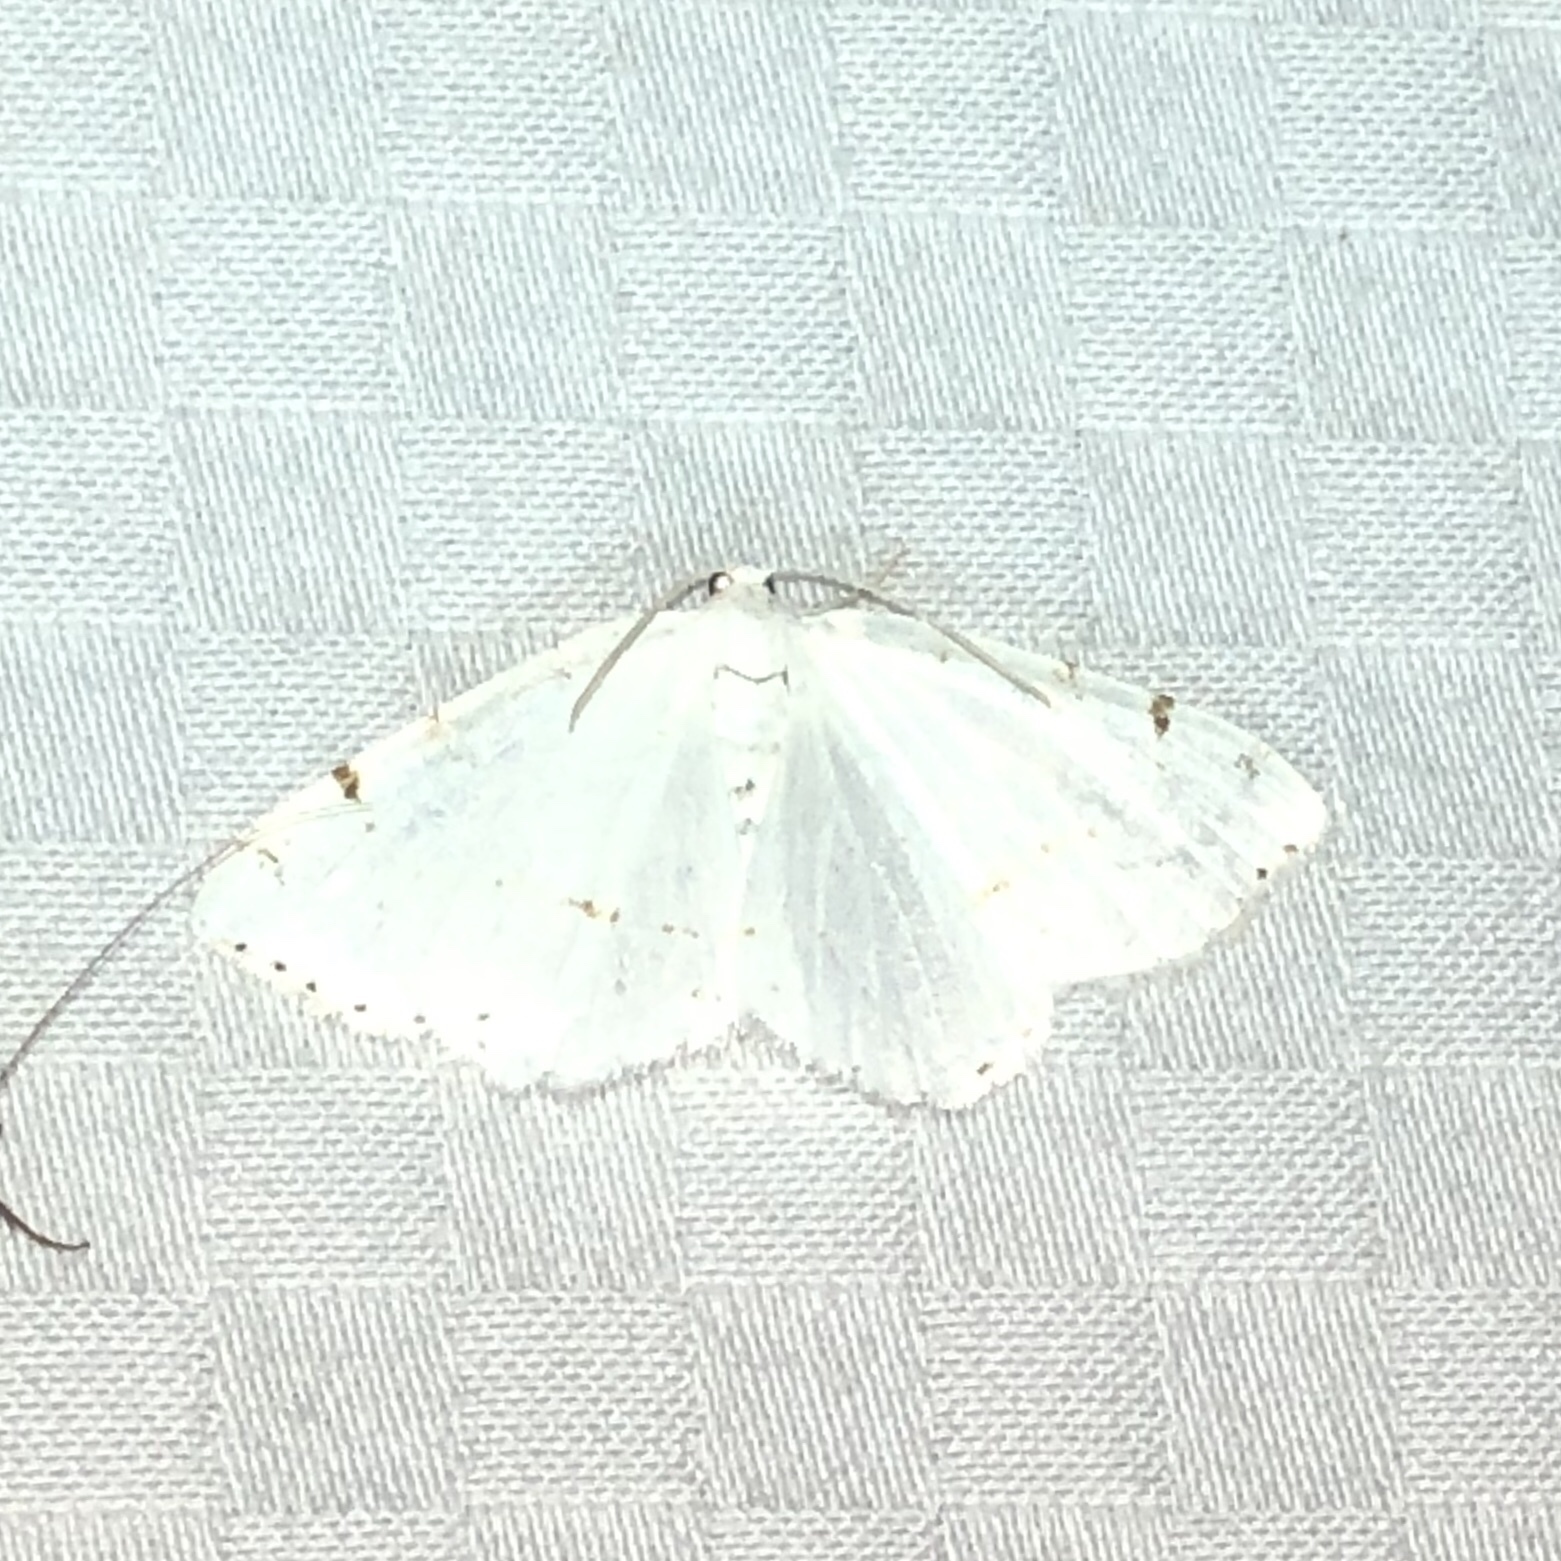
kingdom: Animalia
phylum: Arthropoda
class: Insecta
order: Lepidoptera
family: Geometridae
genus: Macaria
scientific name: Macaria pustularia
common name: Lesser maple spanworm moth
